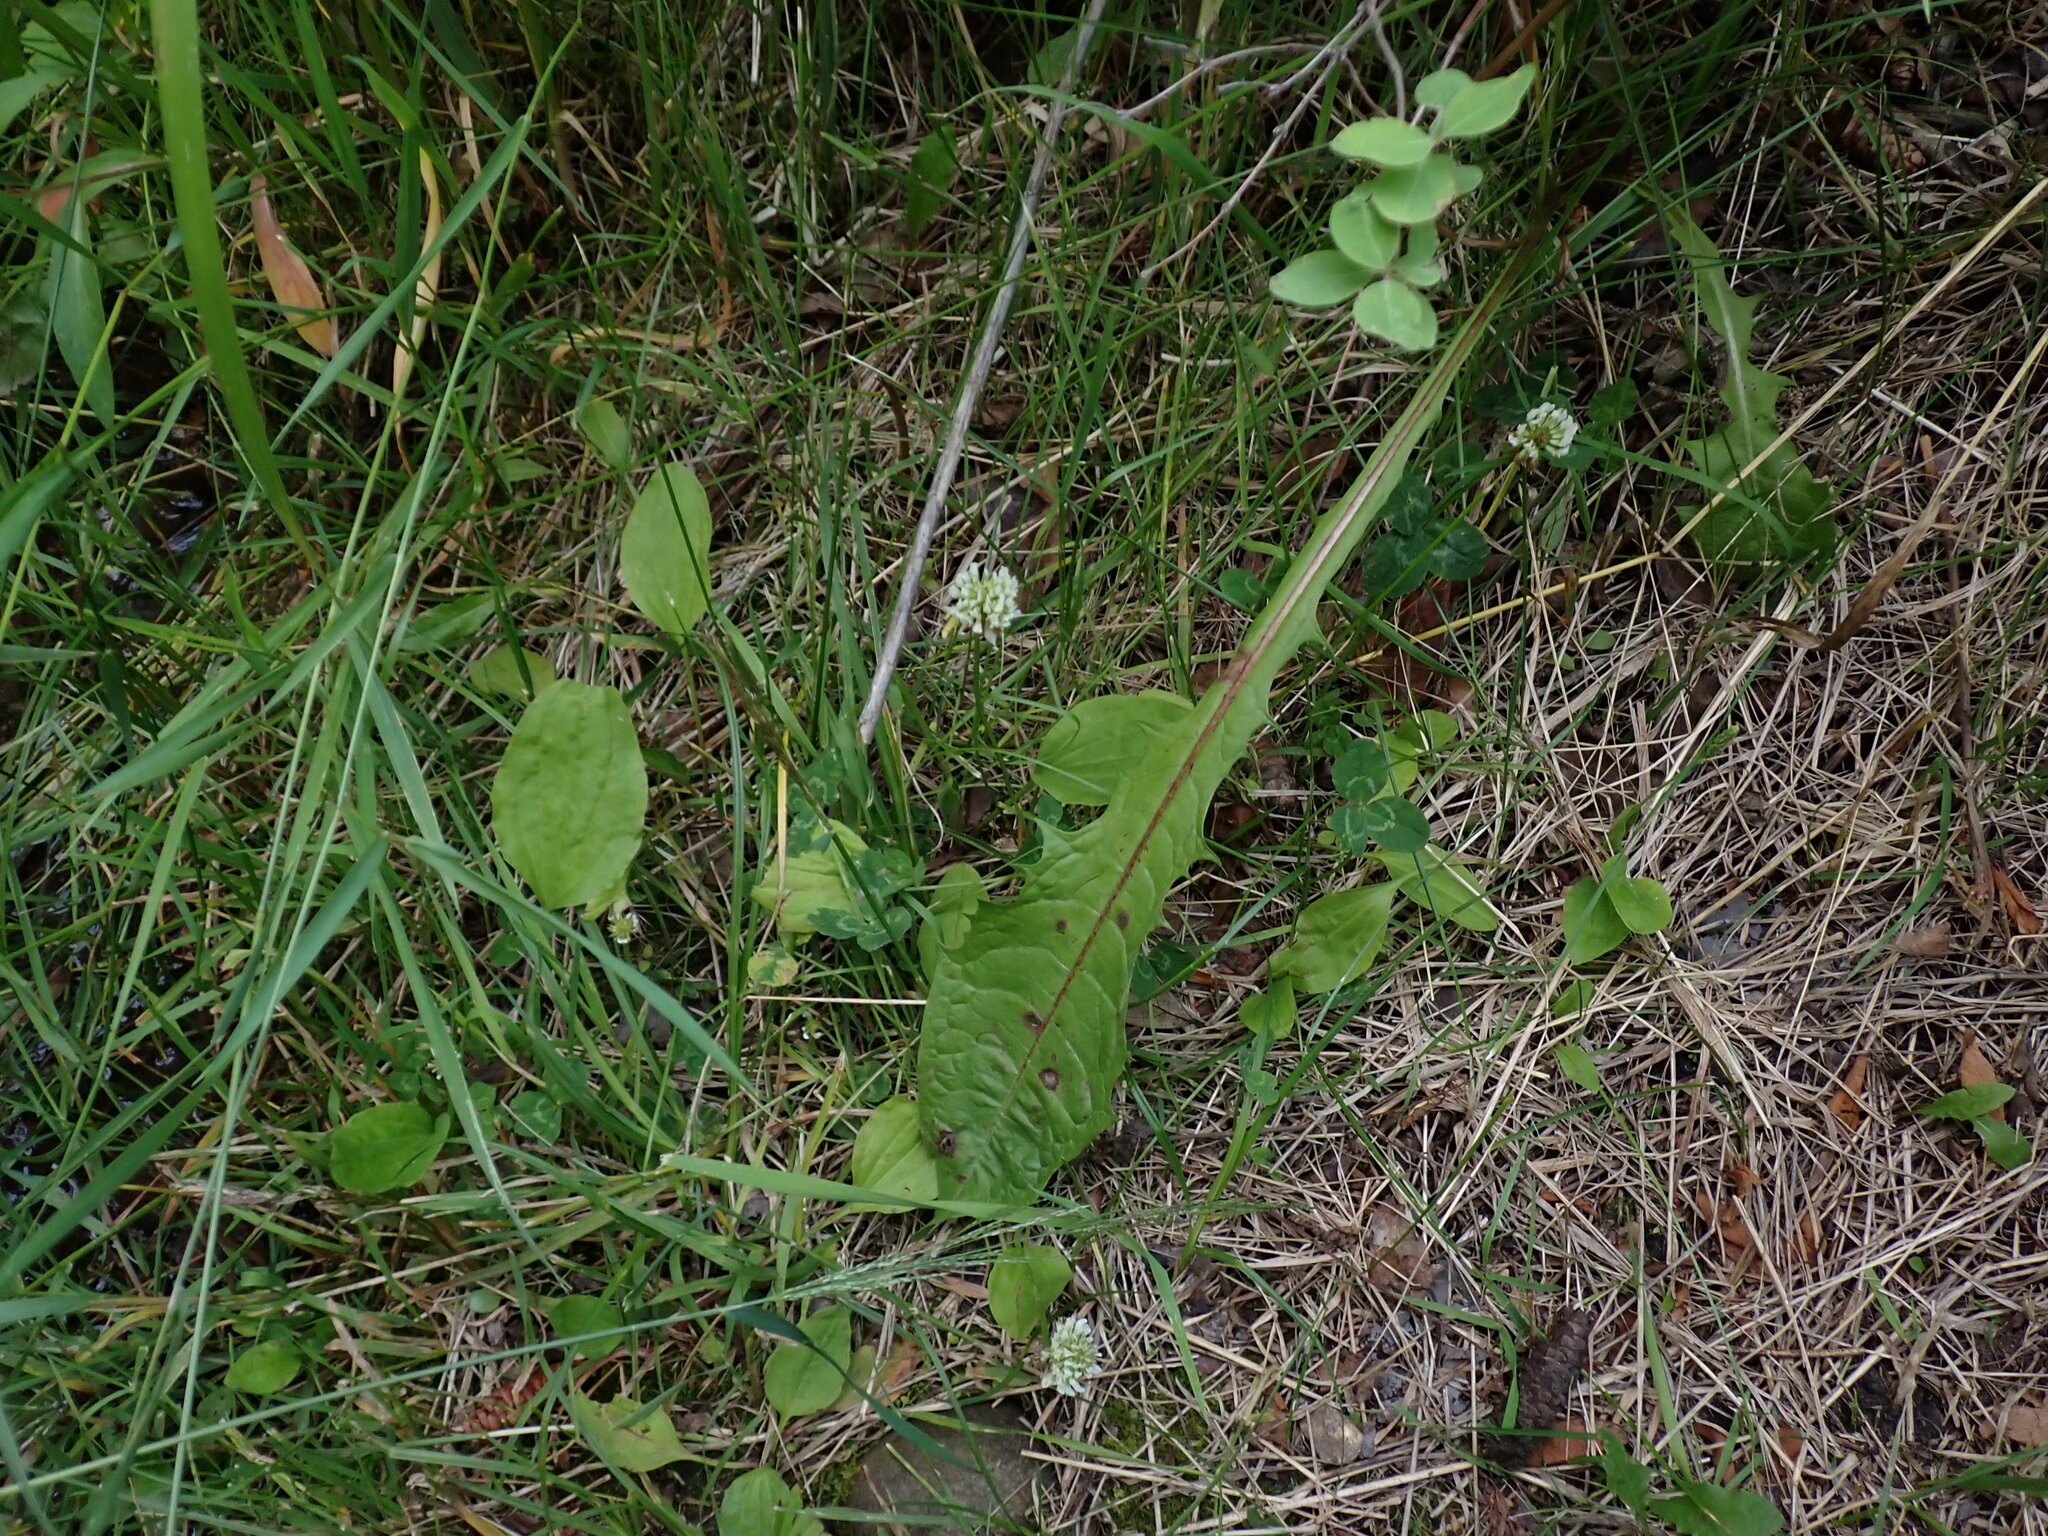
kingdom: Plantae
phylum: Tracheophyta
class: Magnoliopsida
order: Fabales
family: Fabaceae
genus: Trifolium
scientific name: Trifolium repens
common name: White clover
